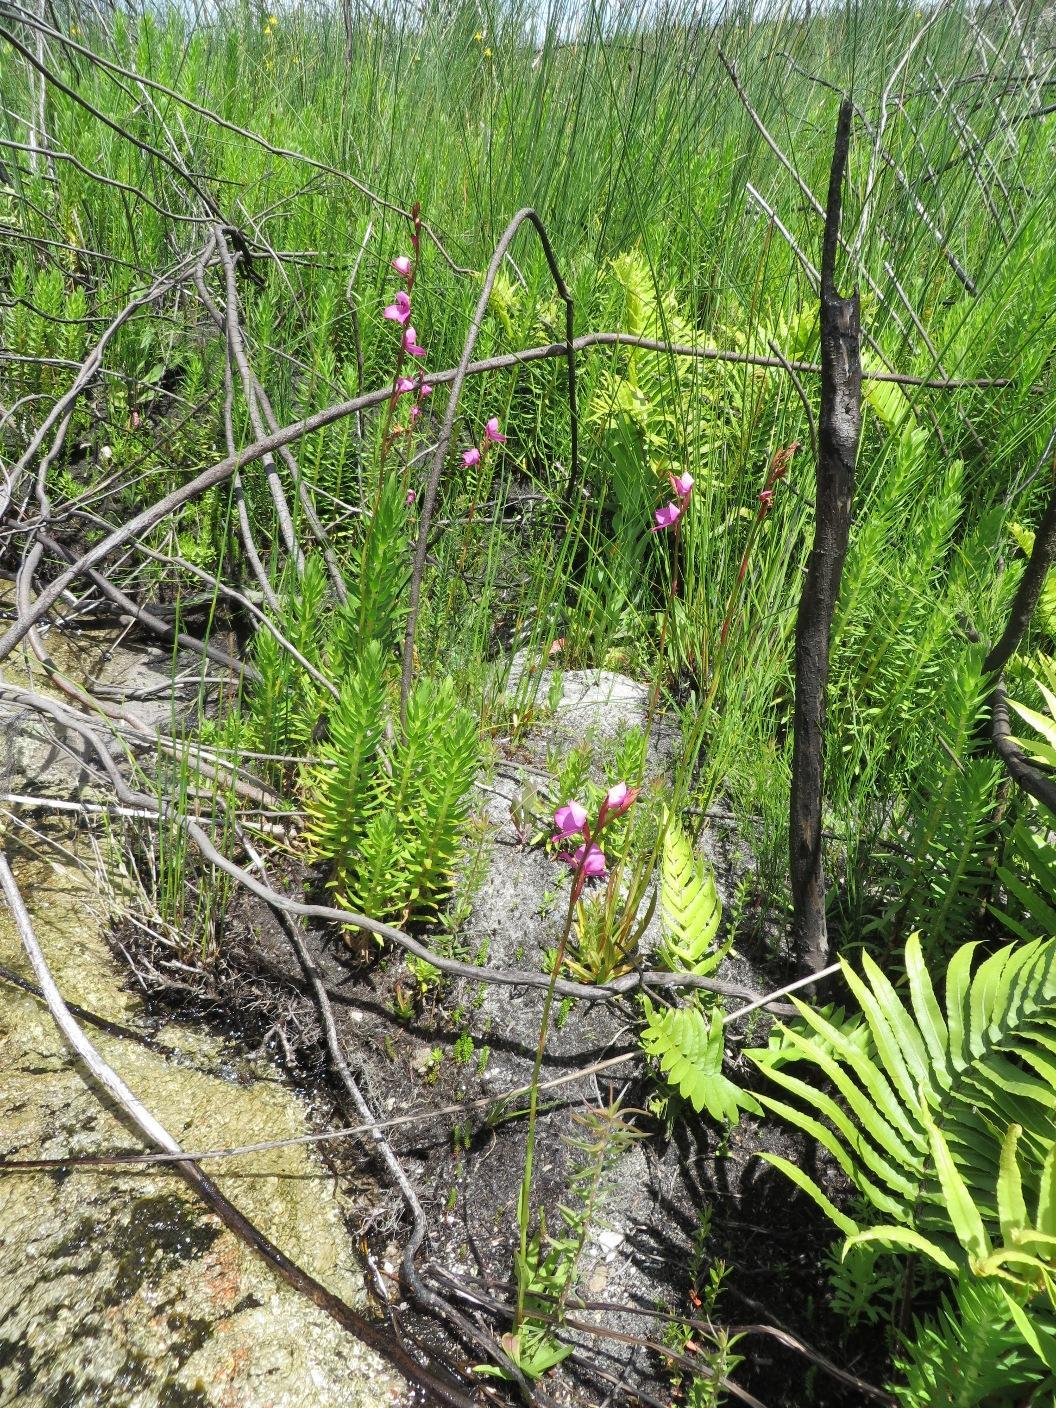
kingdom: Plantae
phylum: Tracheophyta
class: Liliopsida
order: Asparagales
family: Orchidaceae
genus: Disa
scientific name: Disa racemosa
